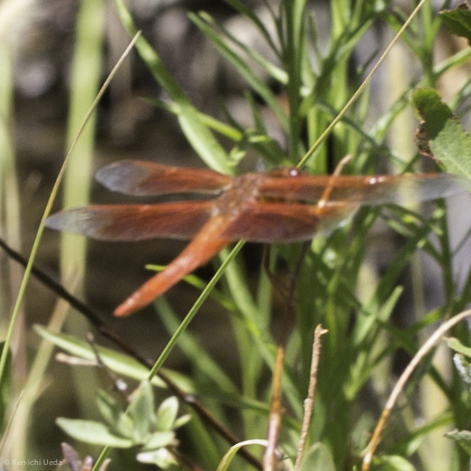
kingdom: Animalia
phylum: Arthropoda
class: Insecta
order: Odonata
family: Libellulidae
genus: Libellula
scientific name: Libellula saturata
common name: Flame skimmer
